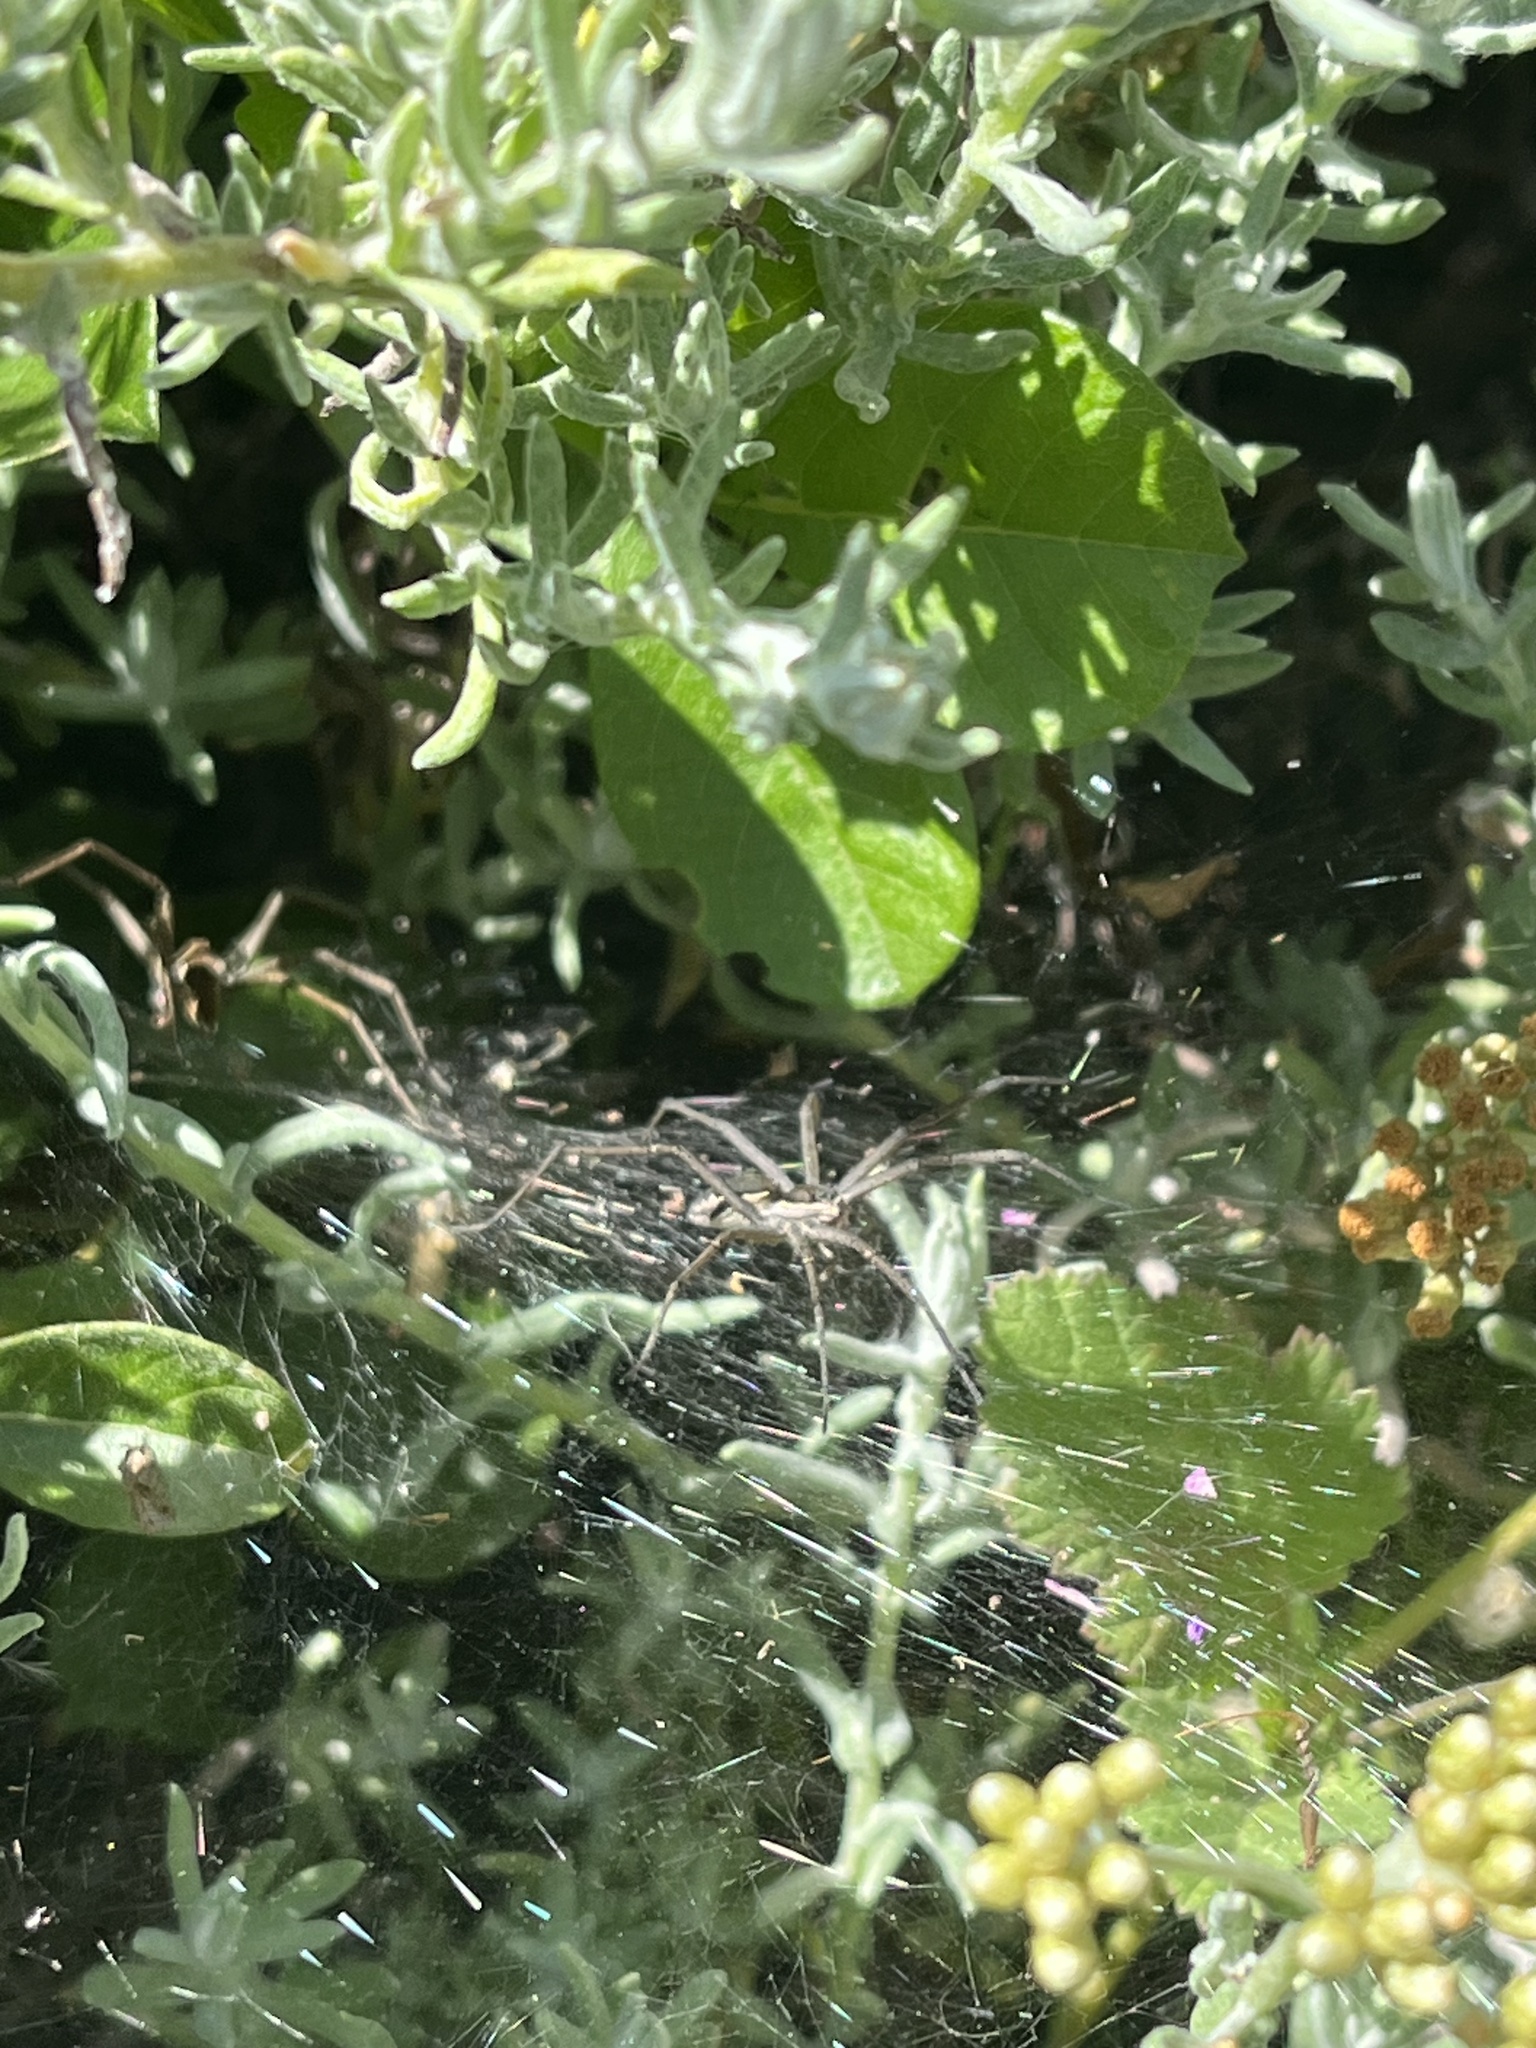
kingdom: Animalia
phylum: Arthropoda
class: Arachnida
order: Araneae
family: Pisauridae
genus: Euprosthenopsis
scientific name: Euprosthenopsis pulchella
